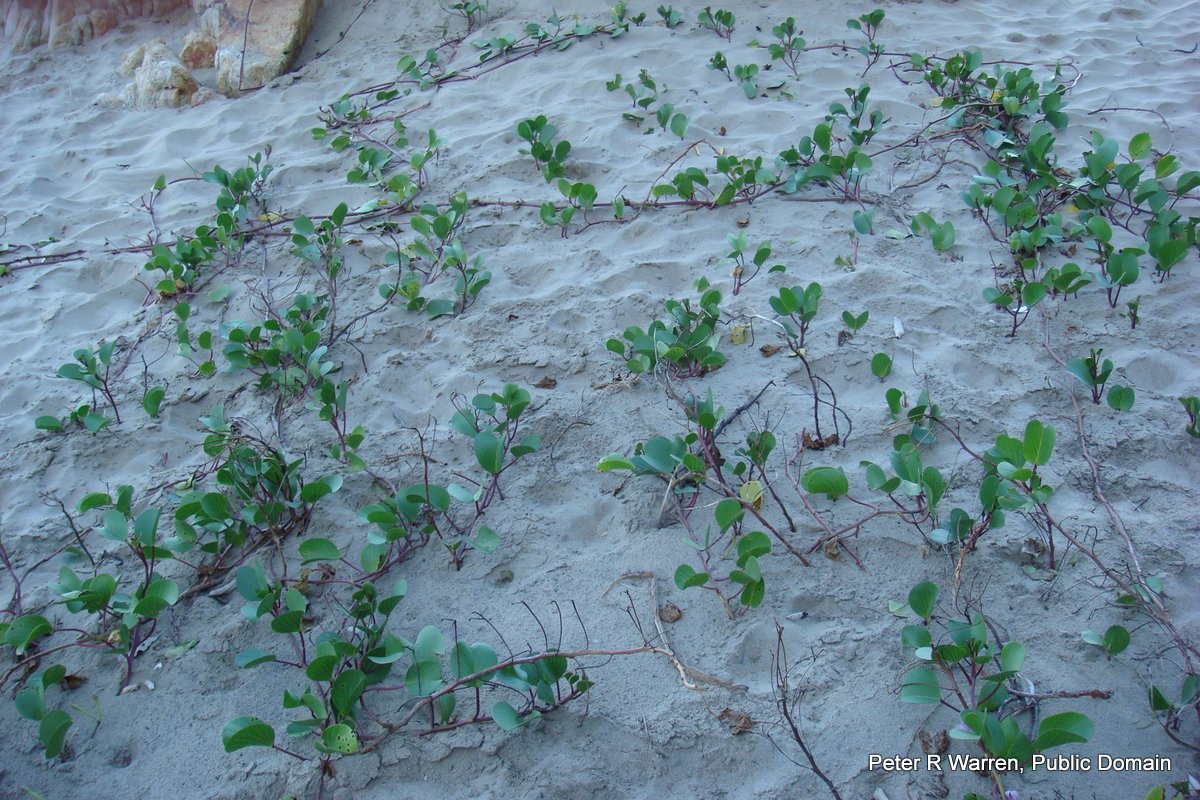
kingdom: Plantae
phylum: Tracheophyta
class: Magnoliopsida
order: Solanales
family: Convolvulaceae
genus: Ipomoea
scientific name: Ipomoea pes-caprae
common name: Beach morning glory
